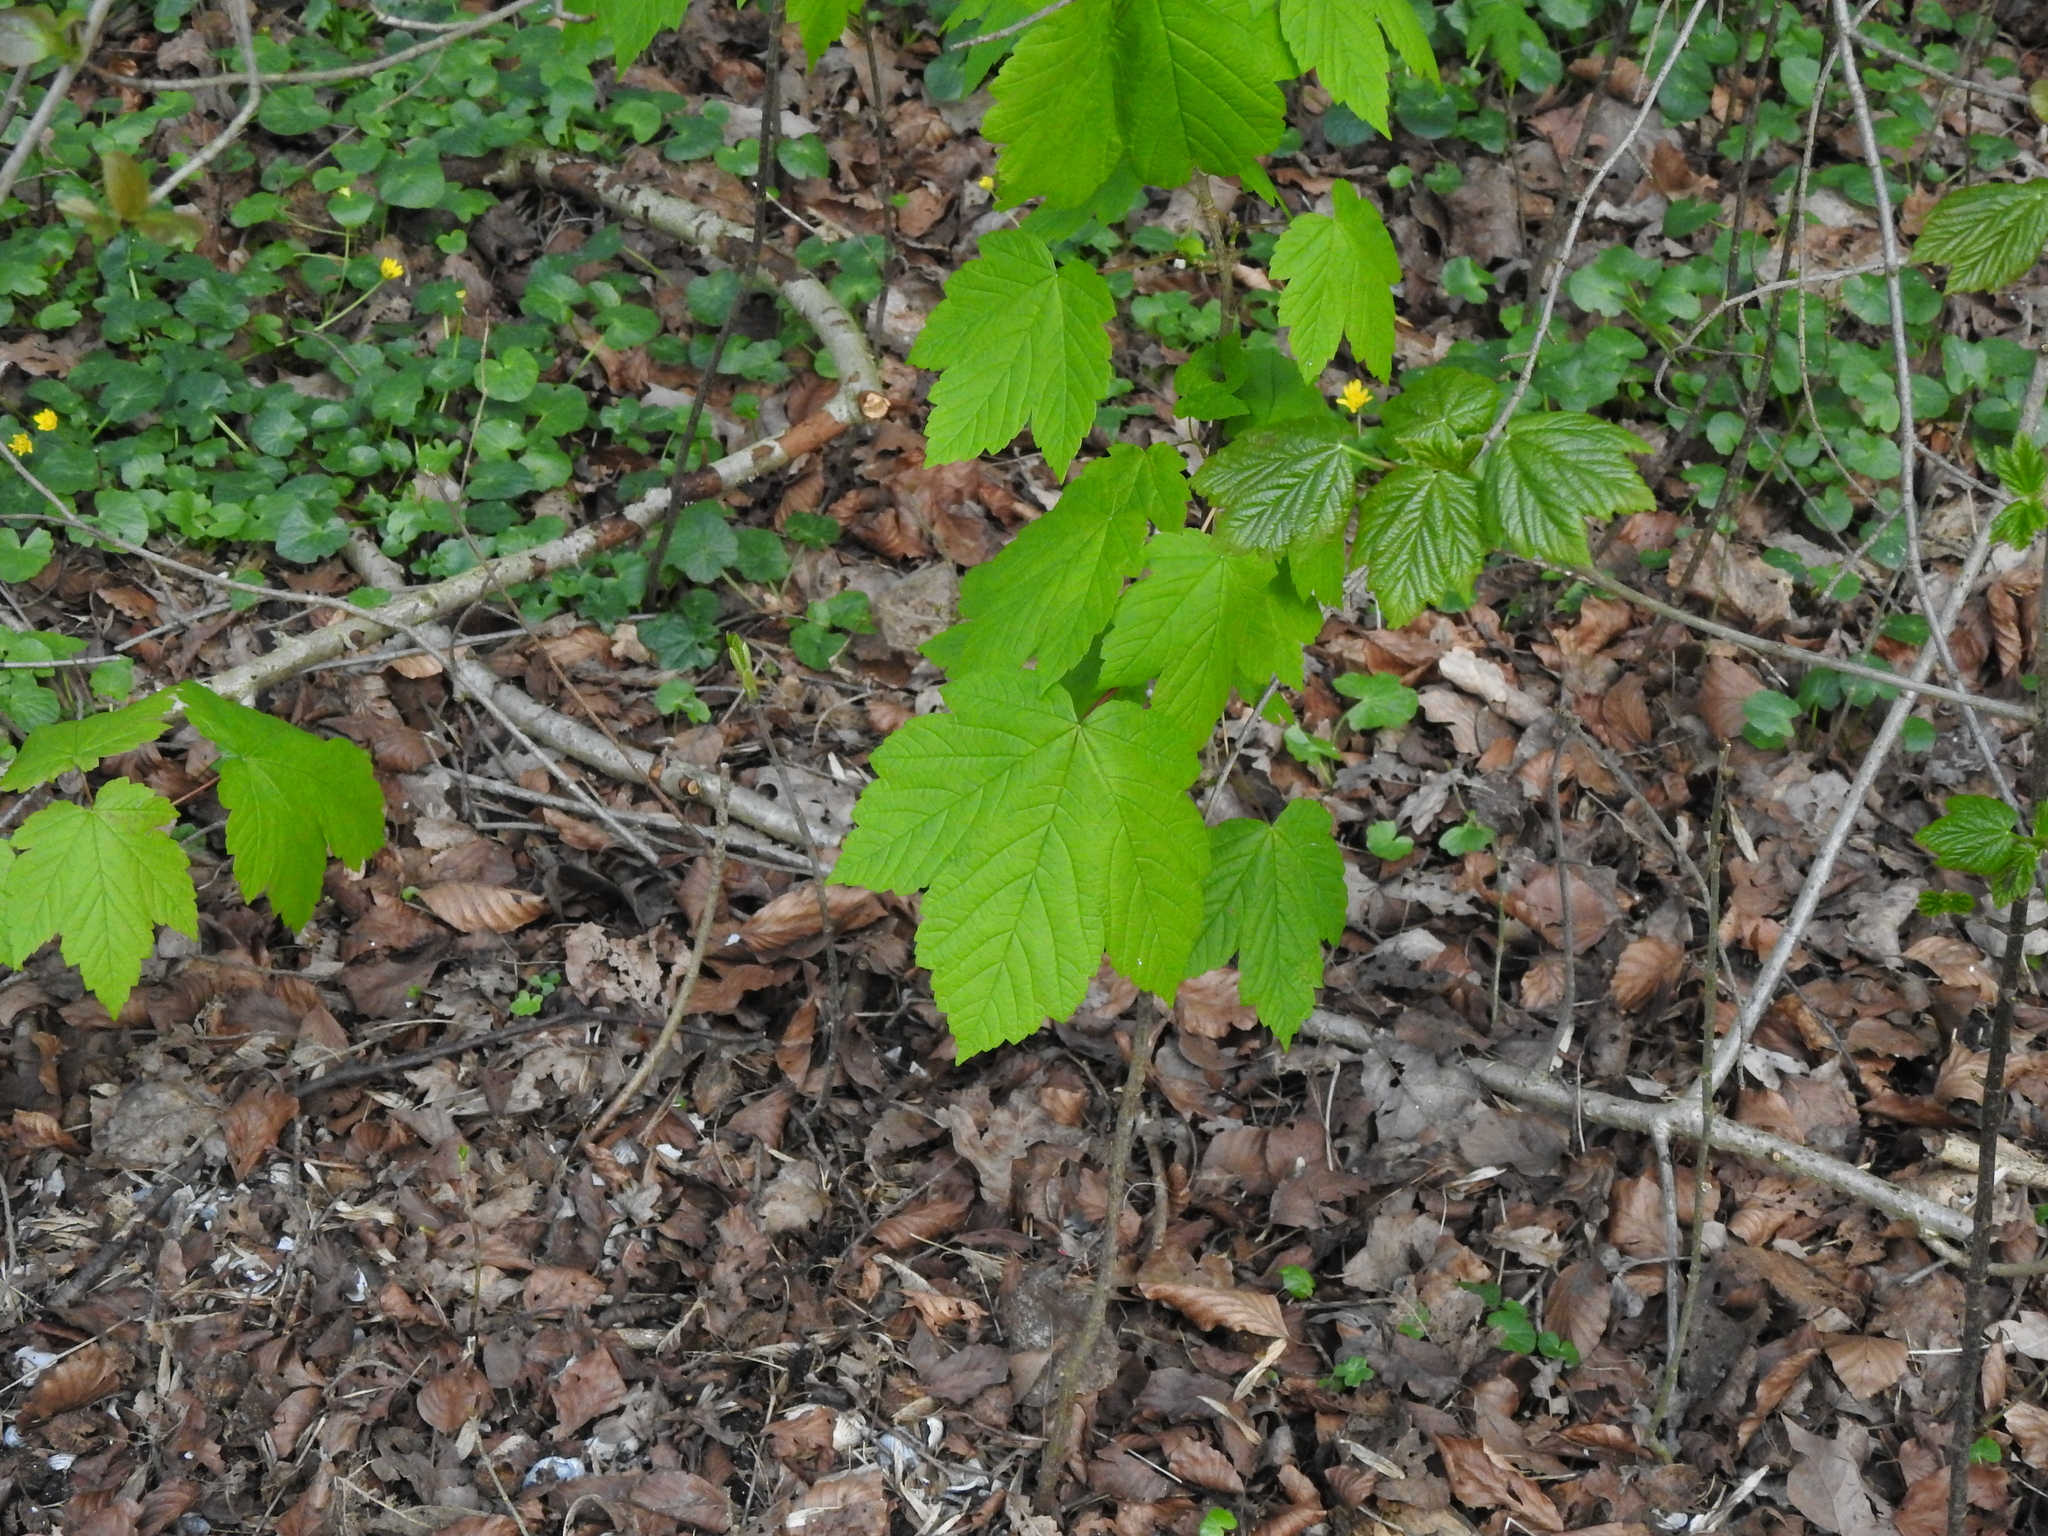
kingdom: Plantae
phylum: Tracheophyta
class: Magnoliopsida
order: Sapindales
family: Sapindaceae
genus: Acer
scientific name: Acer pseudoplatanus
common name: Sycamore
